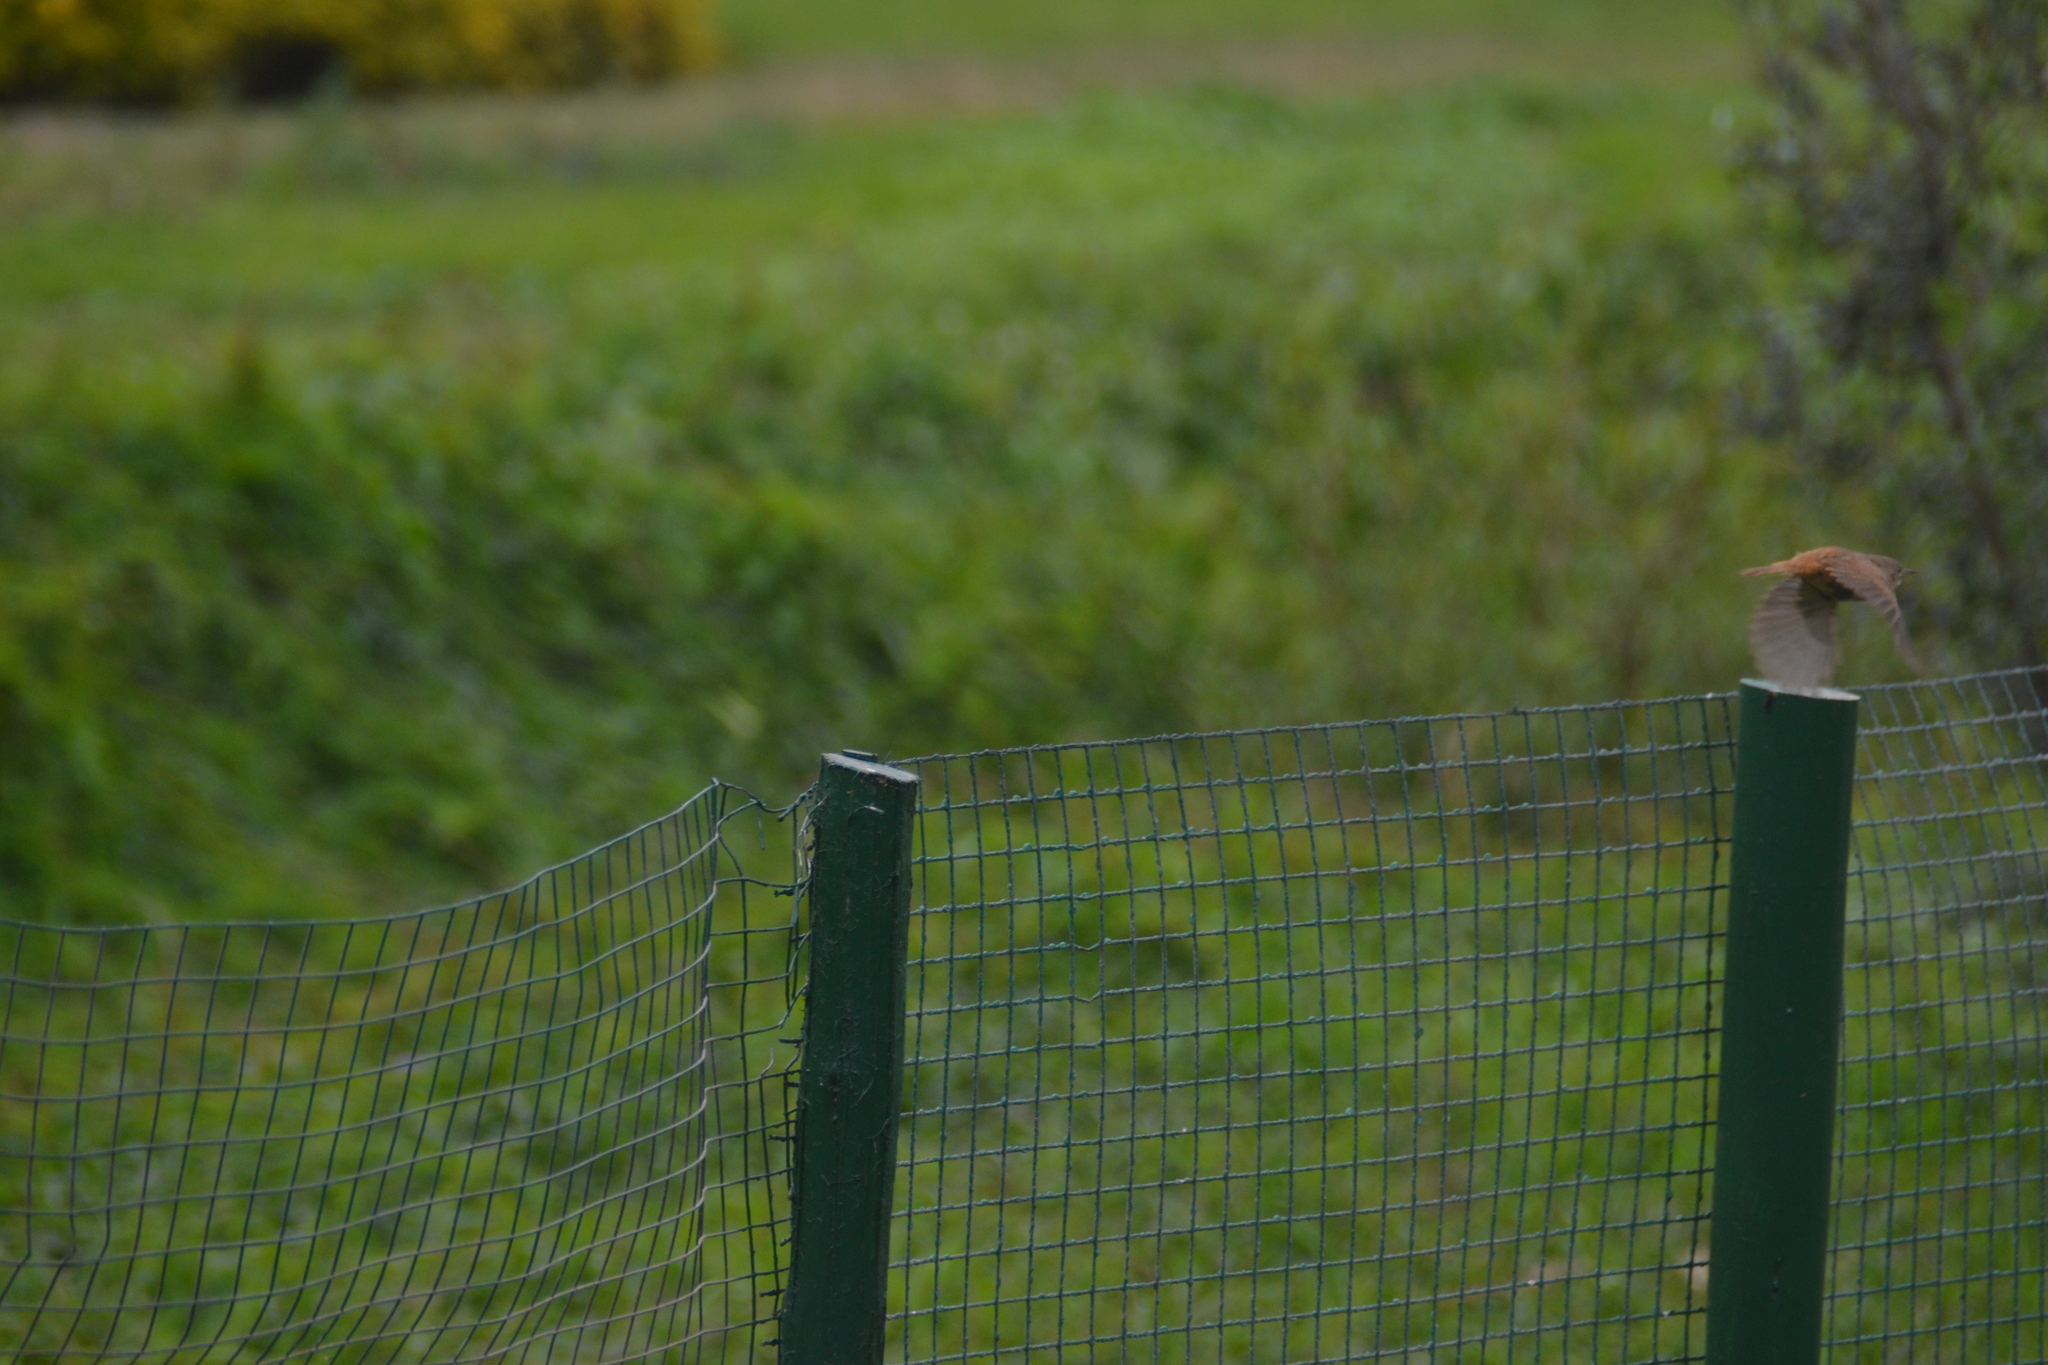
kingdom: Animalia
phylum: Chordata
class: Aves
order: Passeriformes
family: Troglodytidae
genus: Troglodytes
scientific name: Troglodytes aedon
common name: House wren
